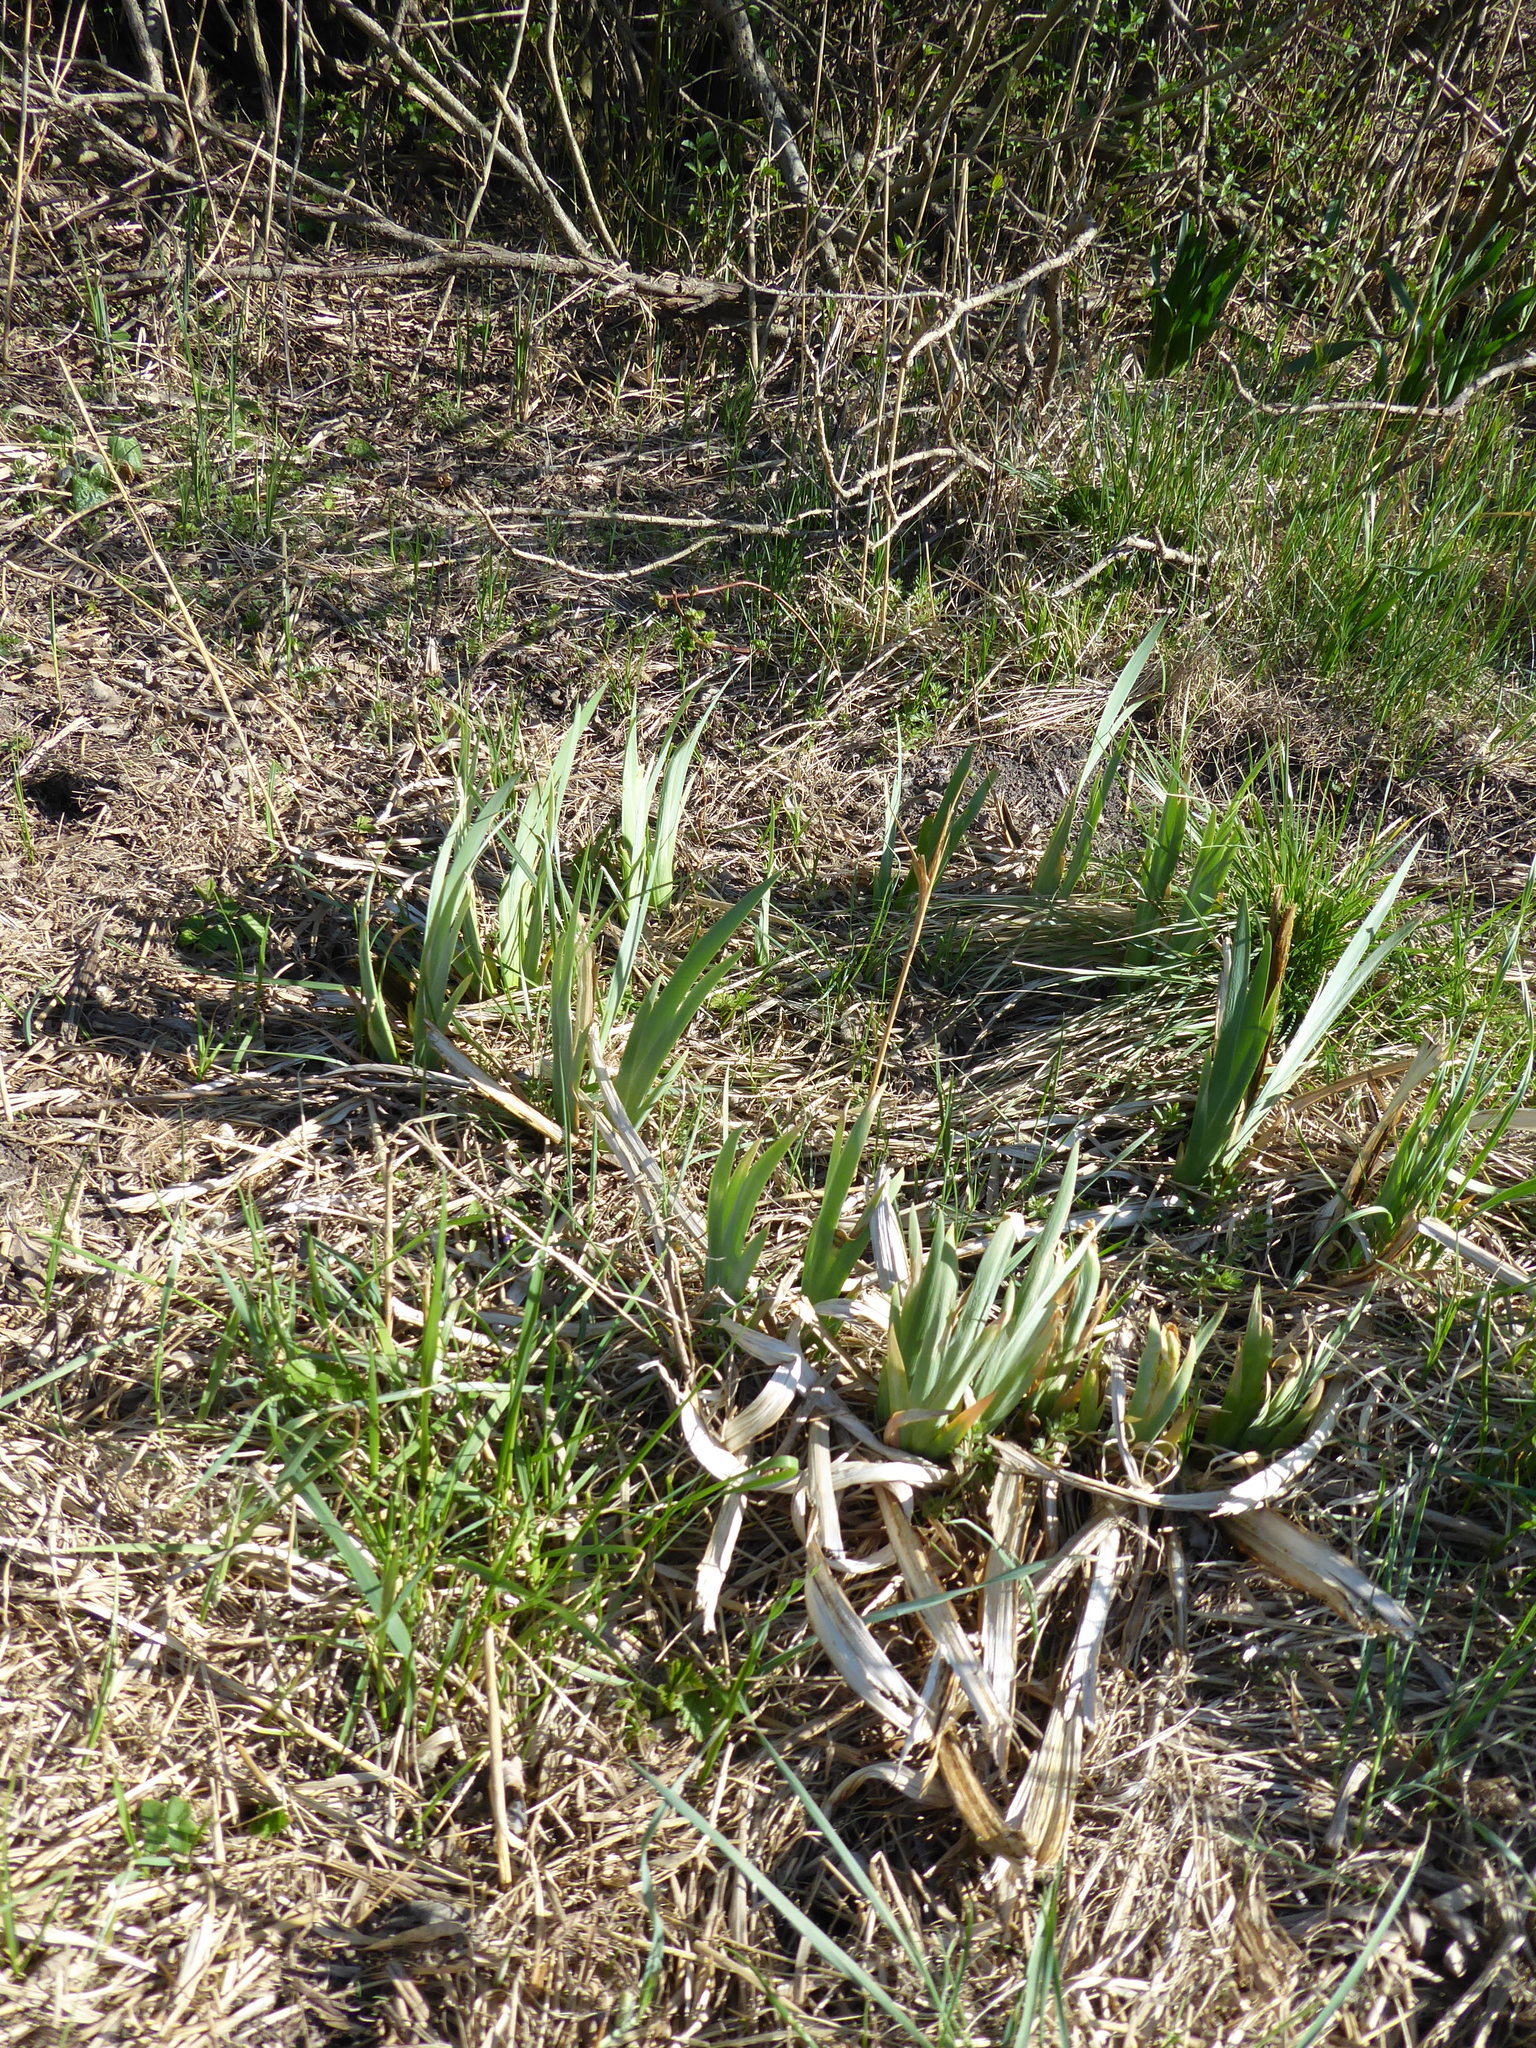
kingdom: Plantae
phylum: Tracheophyta
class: Liliopsida
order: Asparagales
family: Iridaceae
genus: Iris
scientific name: Iris pseudacorus
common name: Yellow flag
